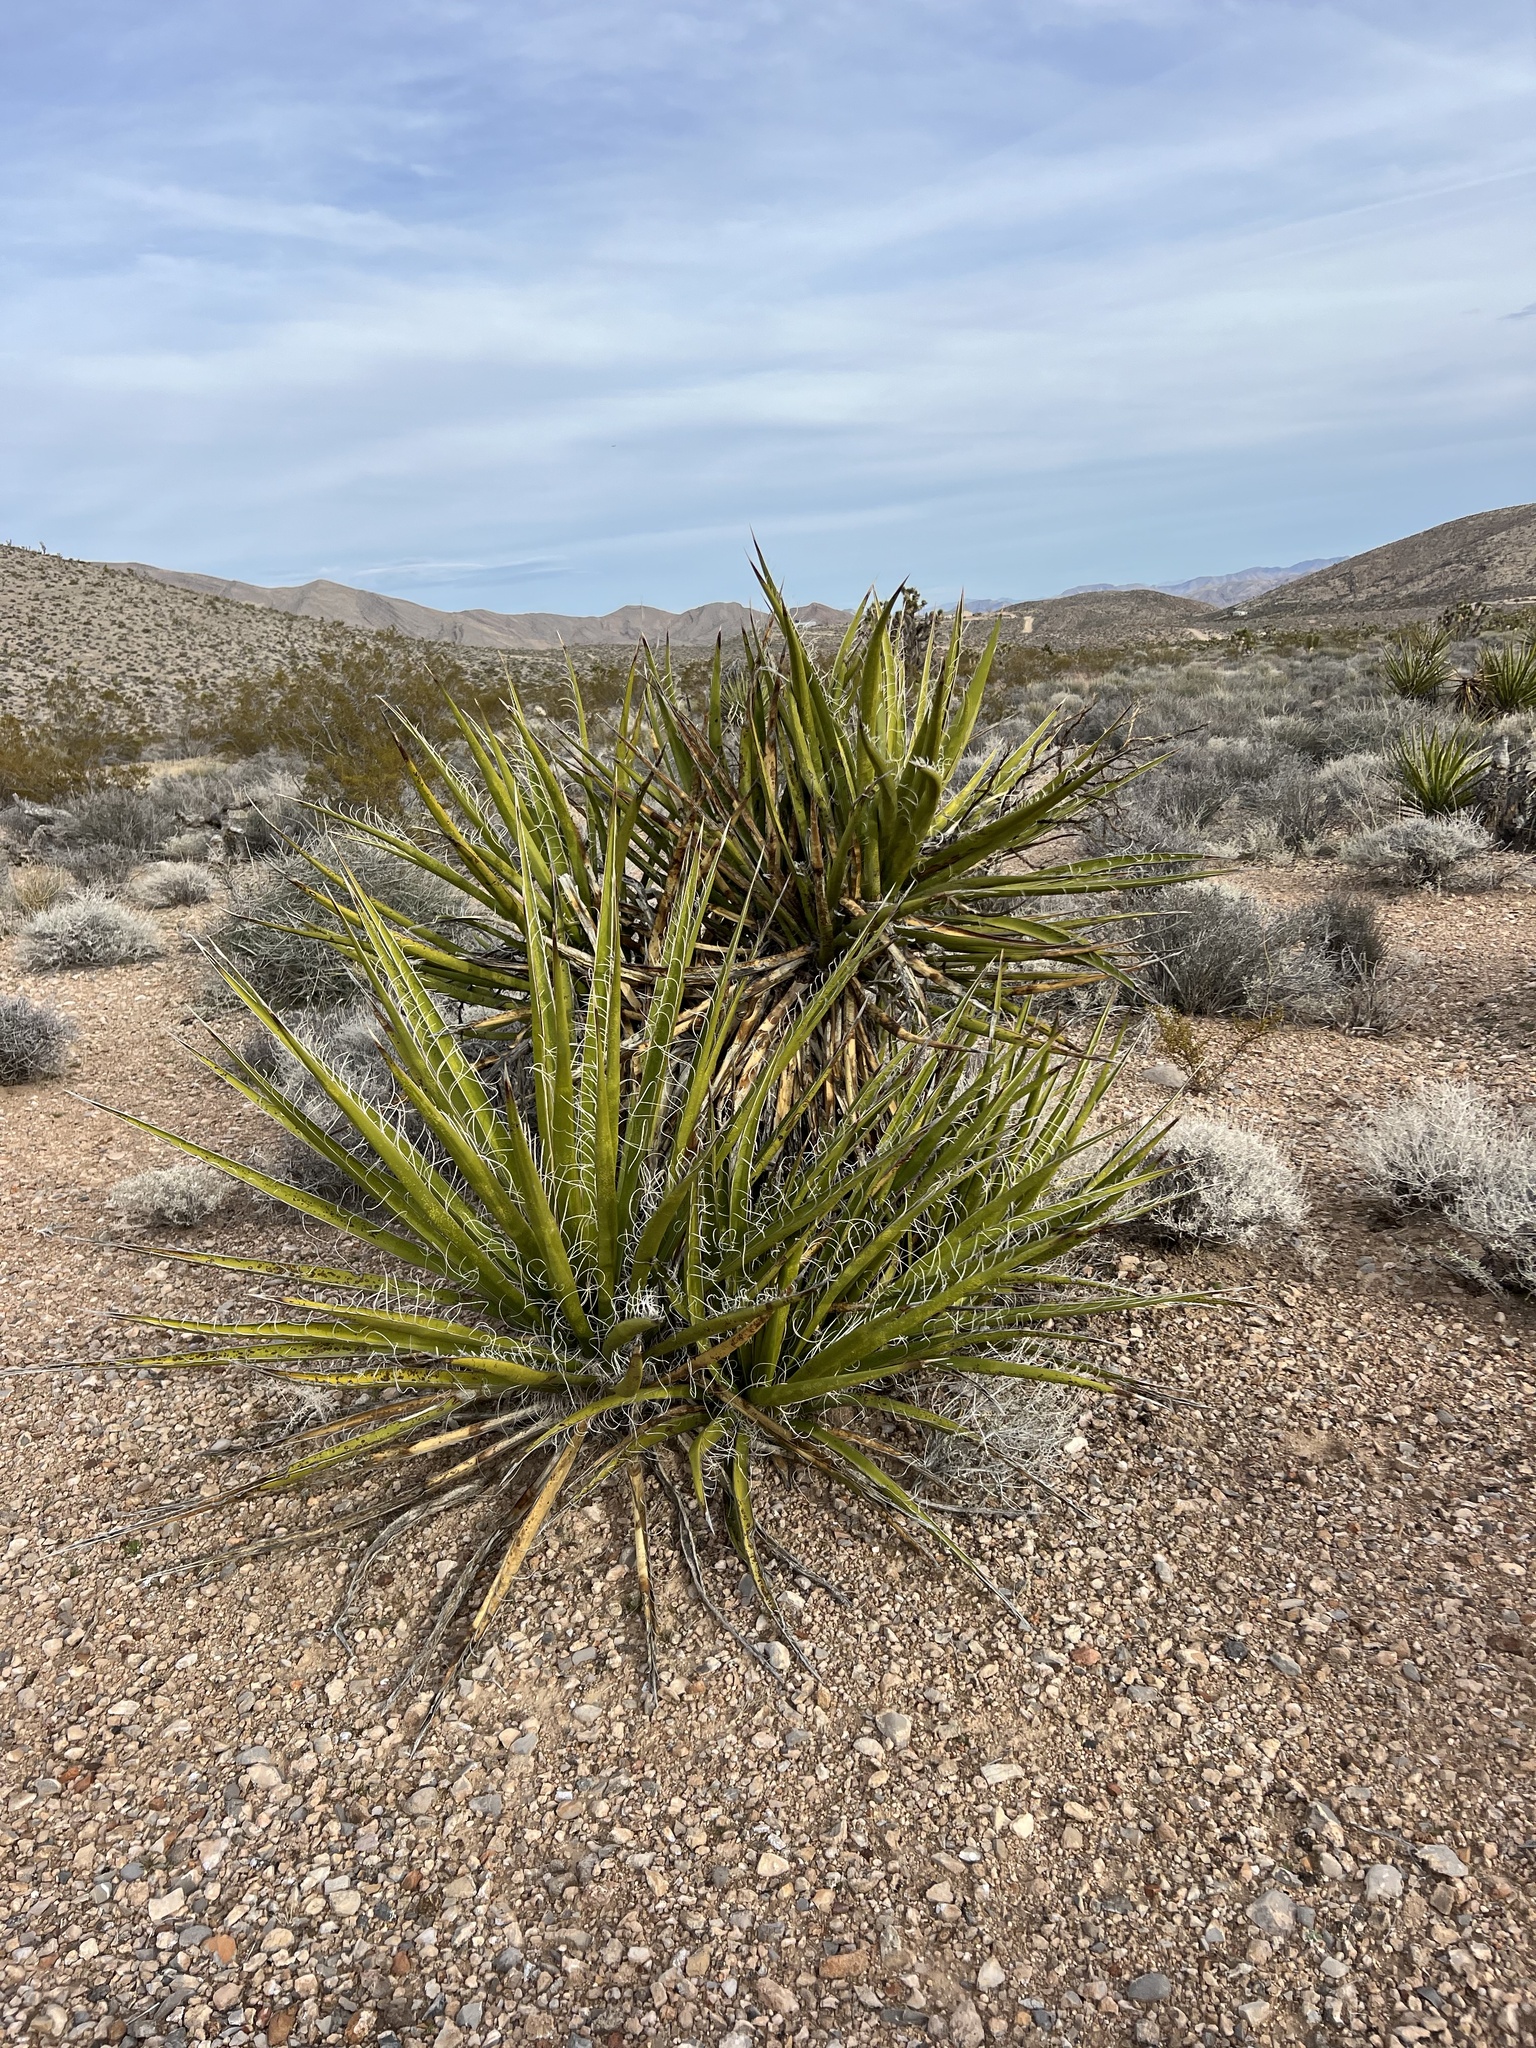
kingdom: Plantae
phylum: Tracheophyta
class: Liliopsida
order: Asparagales
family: Asparagaceae
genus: Yucca
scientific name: Yucca schidigera
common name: Mojave yucca
